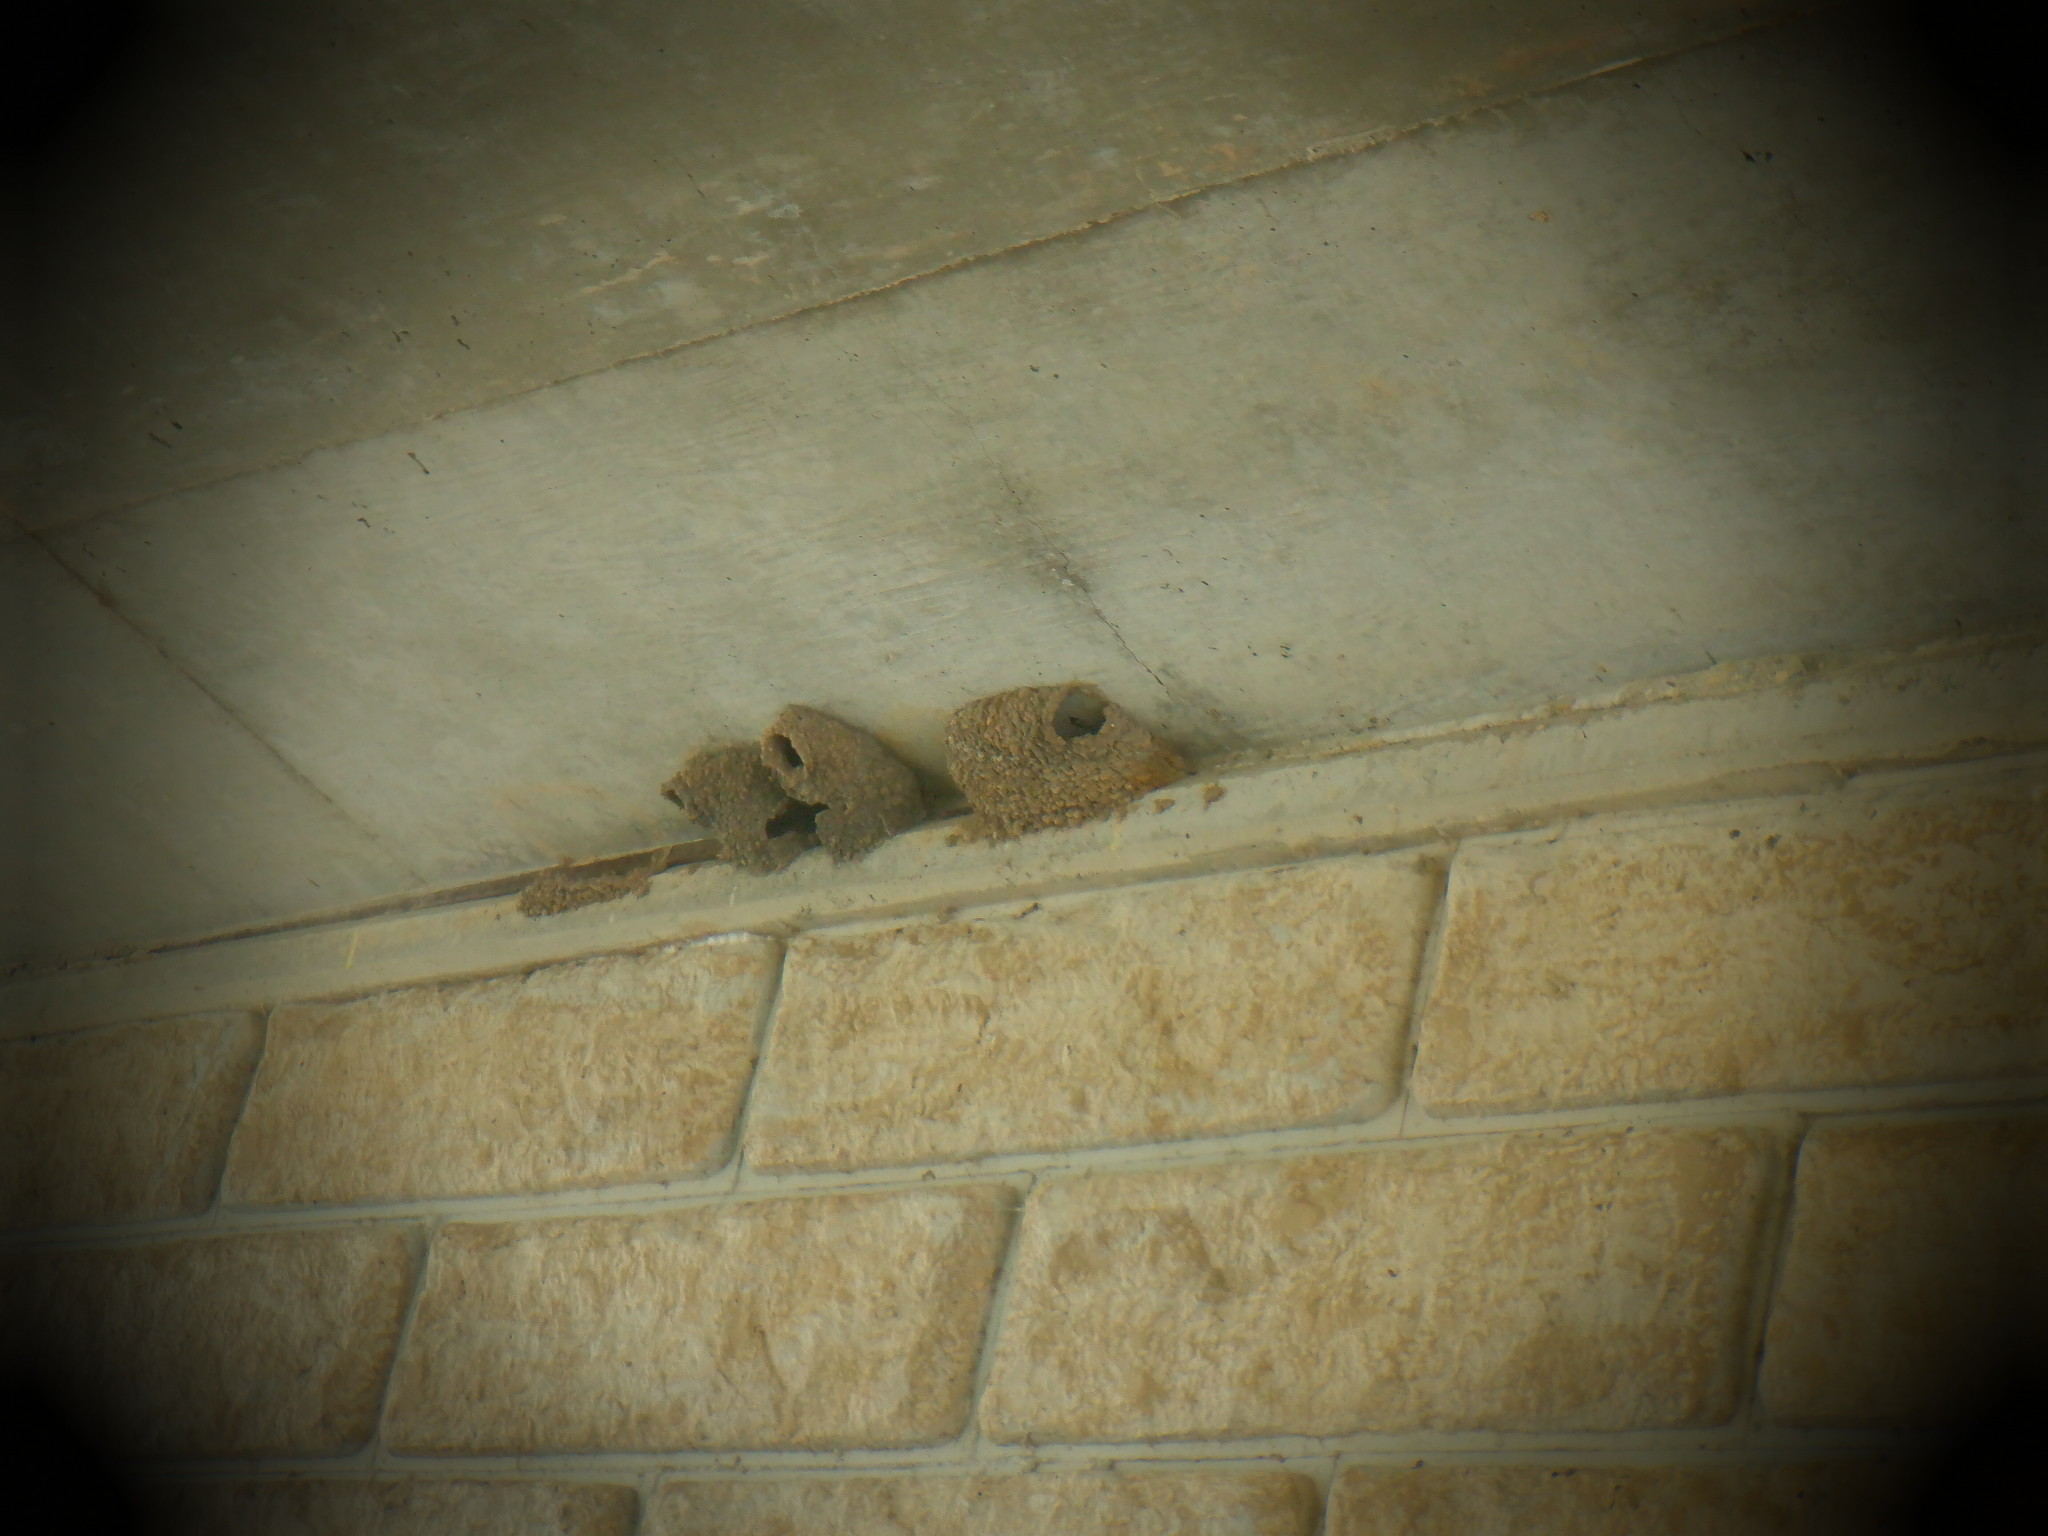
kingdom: Animalia
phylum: Chordata
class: Aves
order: Passeriformes
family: Hirundinidae
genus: Petrochelidon
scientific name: Petrochelidon pyrrhonota
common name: American cliff swallow
